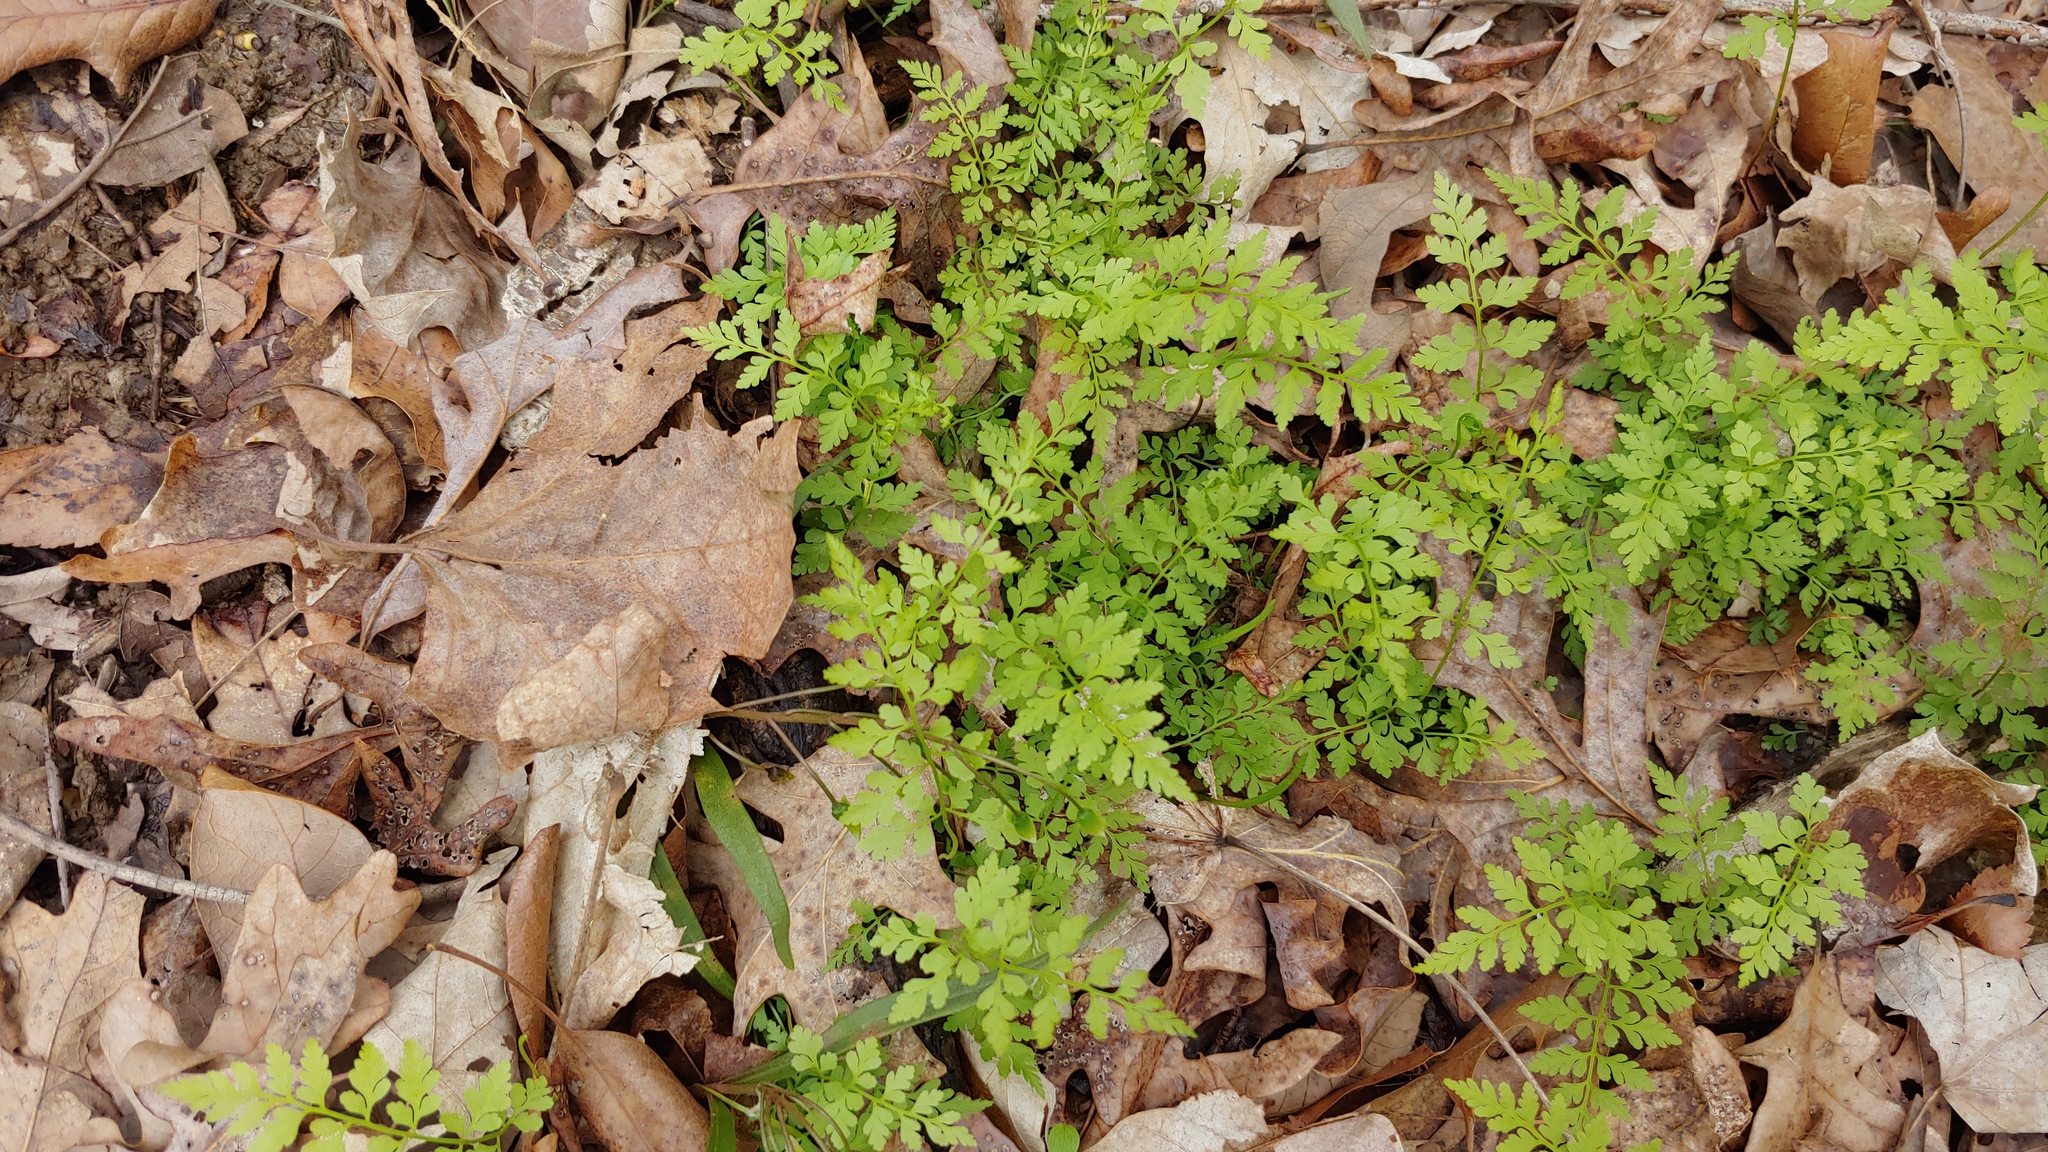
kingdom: Plantae
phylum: Tracheophyta
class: Polypodiopsida
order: Polypodiales
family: Cystopteridaceae
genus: Cystopteris
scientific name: Cystopteris protrusa
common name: Lowland brittle fern
